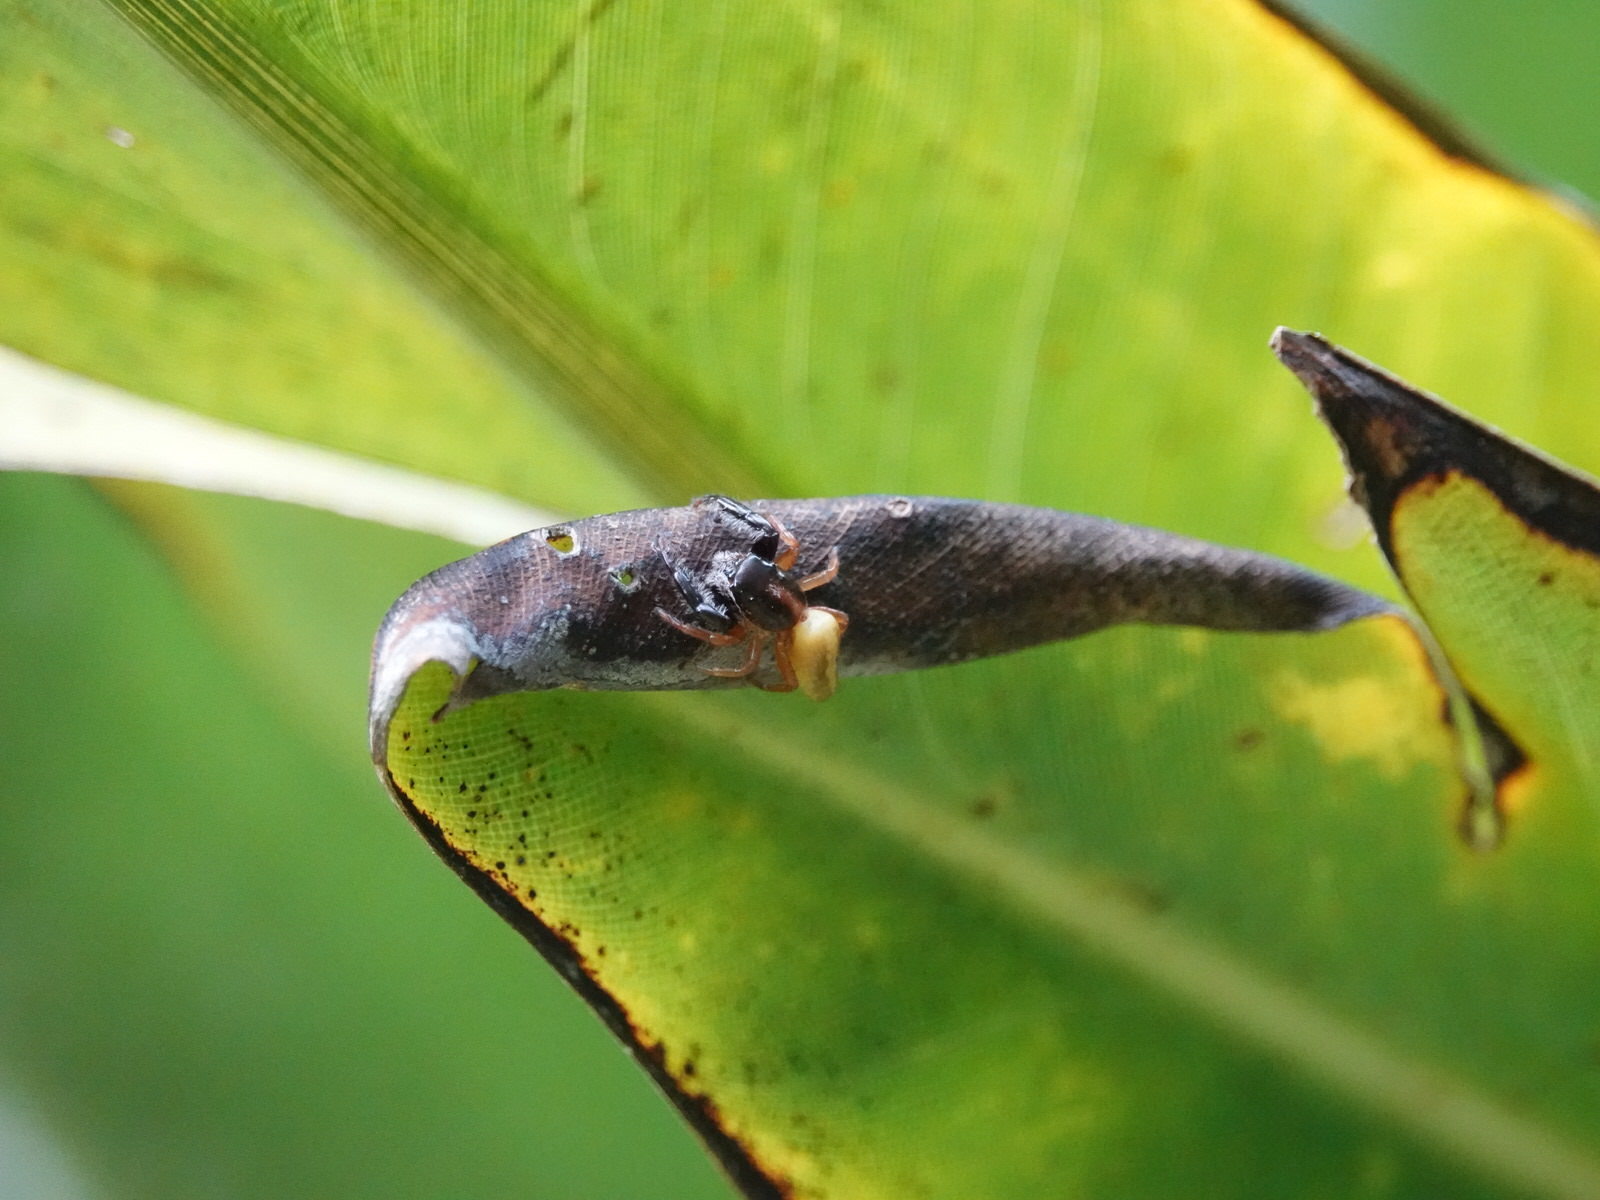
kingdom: Animalia
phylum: Arthropoda
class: Arachnida
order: Araneae
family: Salticidae
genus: Trite
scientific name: Trite planiceps
